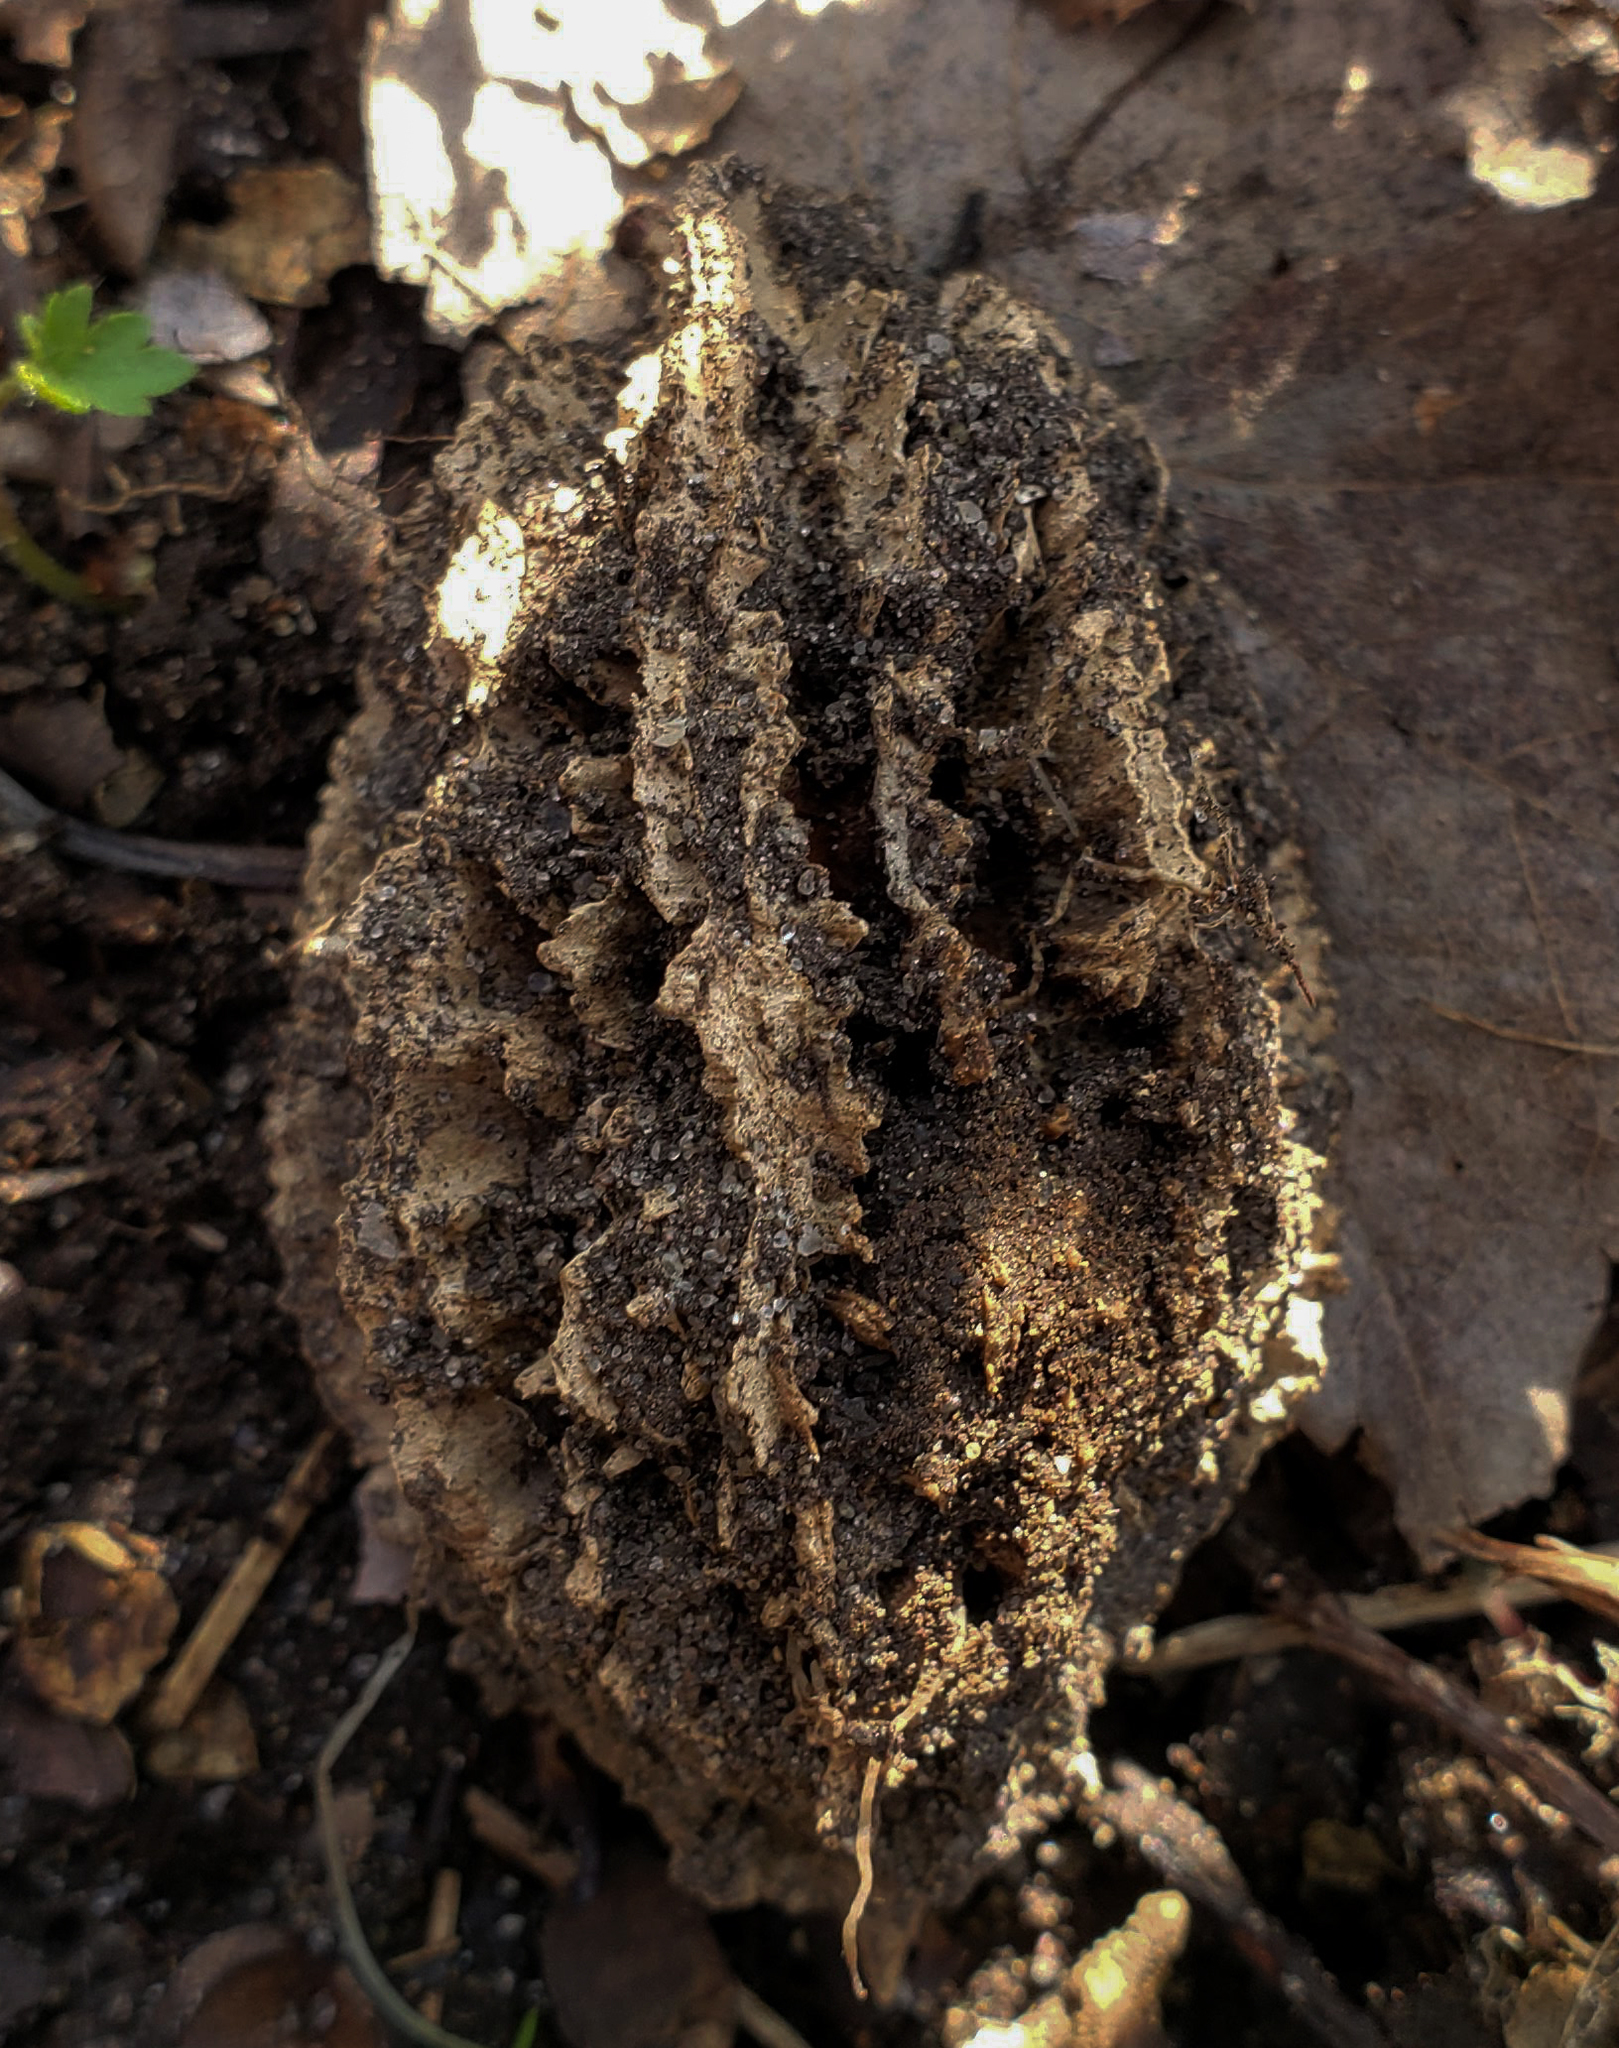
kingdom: Plantae
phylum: Tracheophyta
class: Magnoliopsida
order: Fagales
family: Juglandaceae
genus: Juglans
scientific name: Juglans cinerea
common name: Butternut
